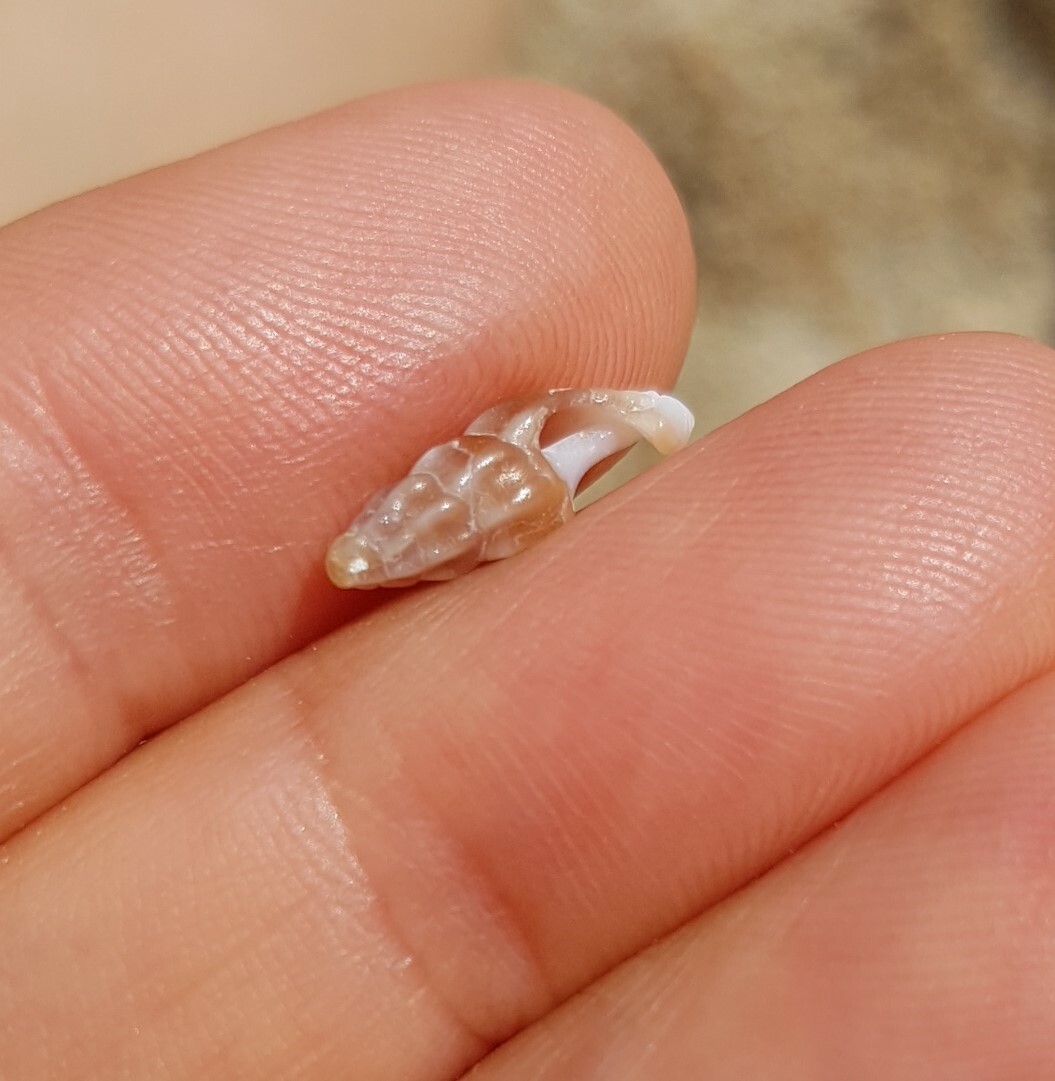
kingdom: Animalia
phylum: Mollusca
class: Gastropoda
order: Neogastropoda
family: Horaiclavidae
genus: Haedropleura
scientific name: Haedropleura septangularis
